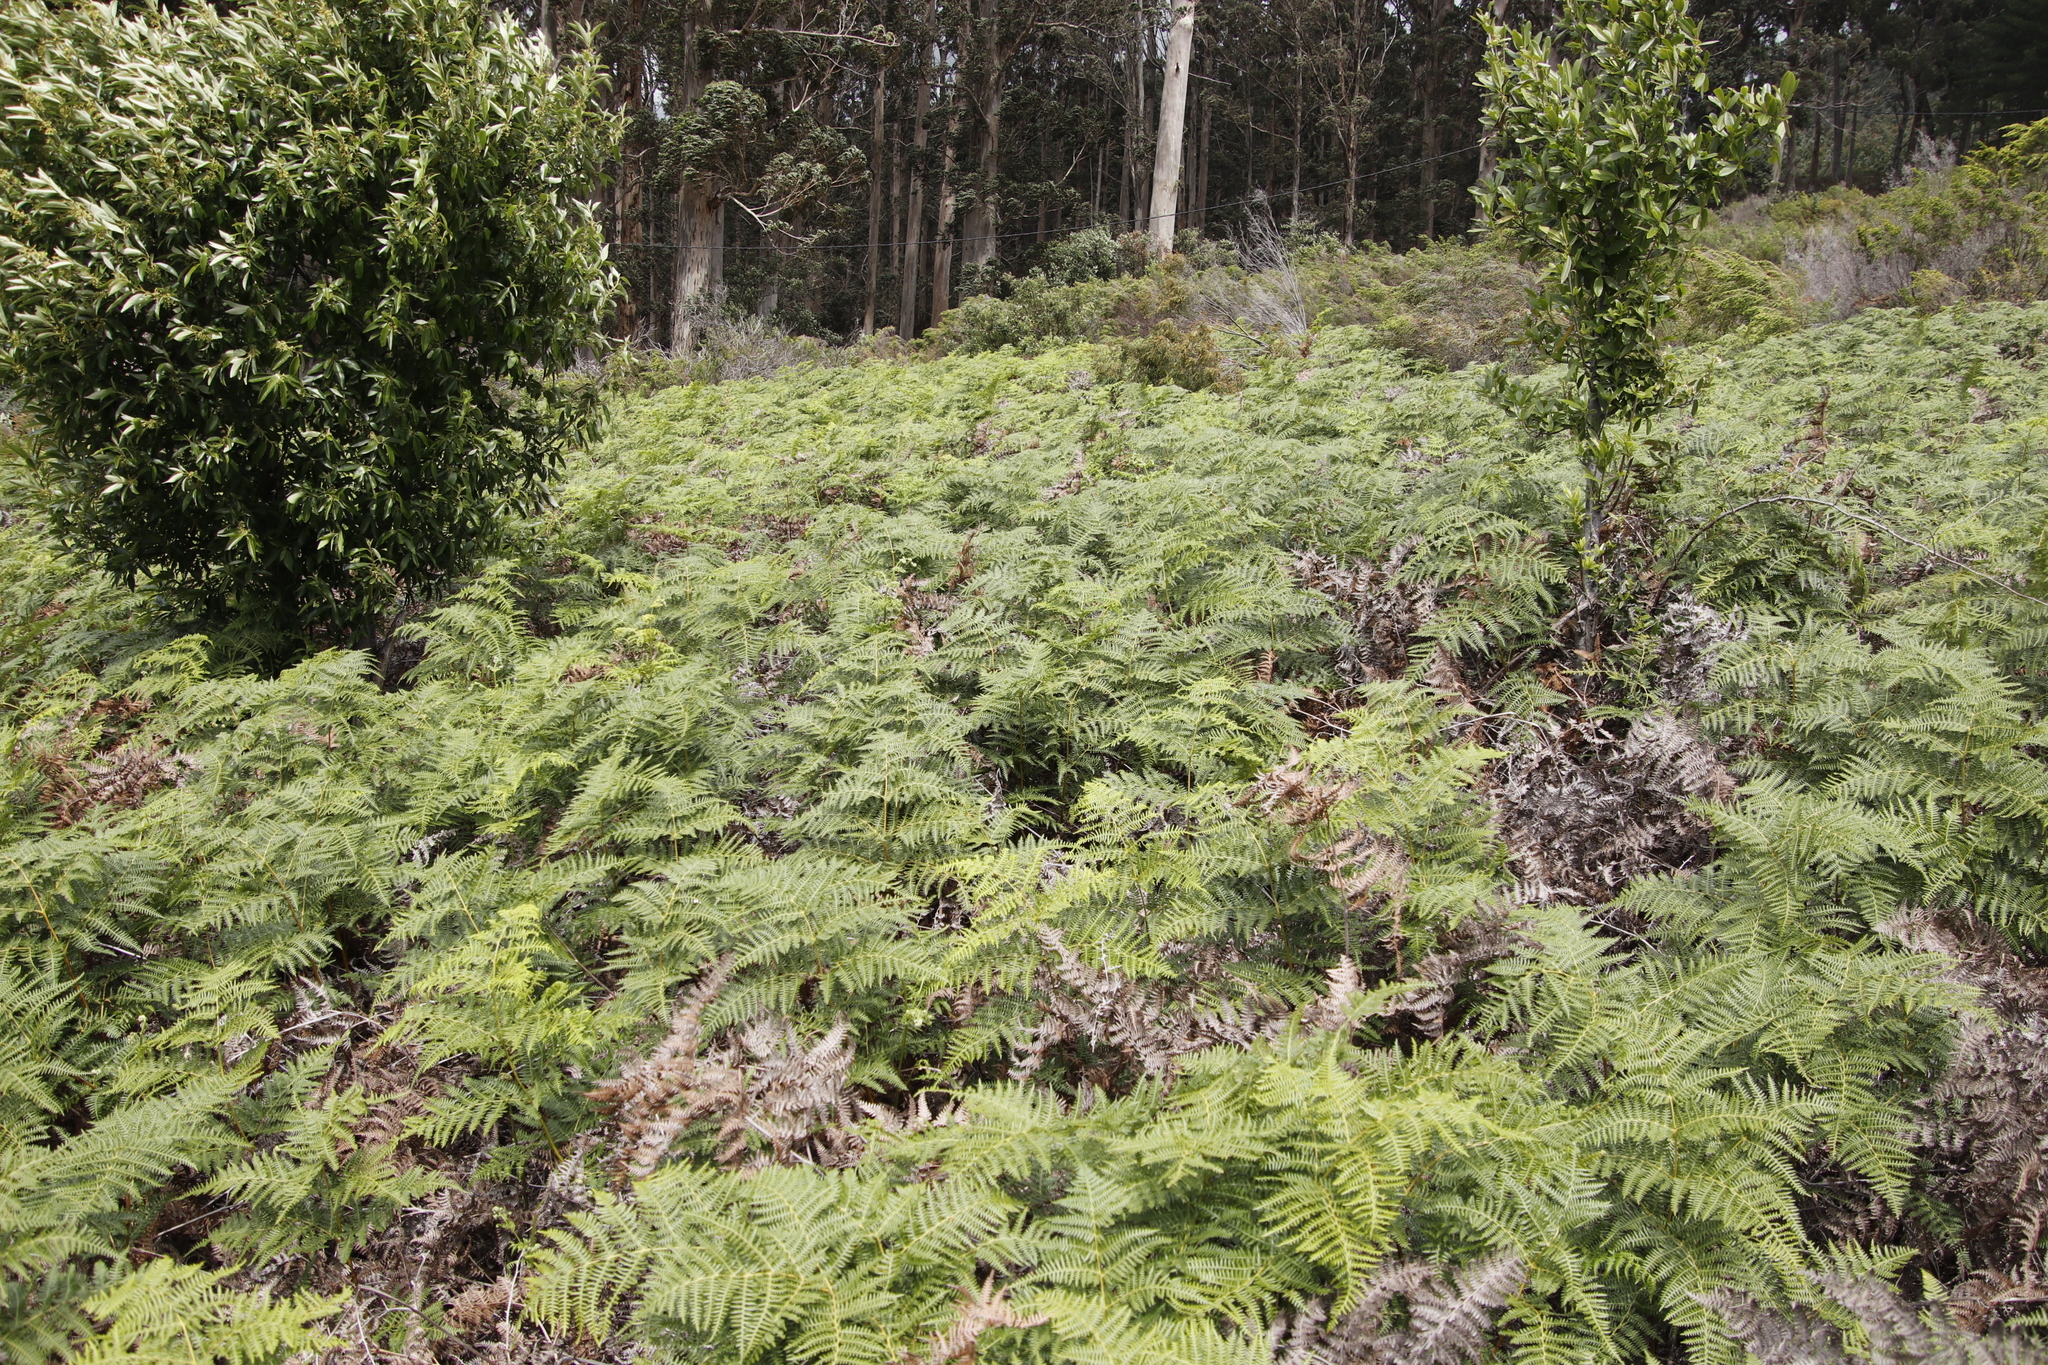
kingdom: Plantae
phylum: Tracheophyta
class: Polypodiopsida
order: Polypodiales
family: Dennstaedtiaceae
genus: Pteridium
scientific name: Pteridium aquilinum
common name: Bracken
